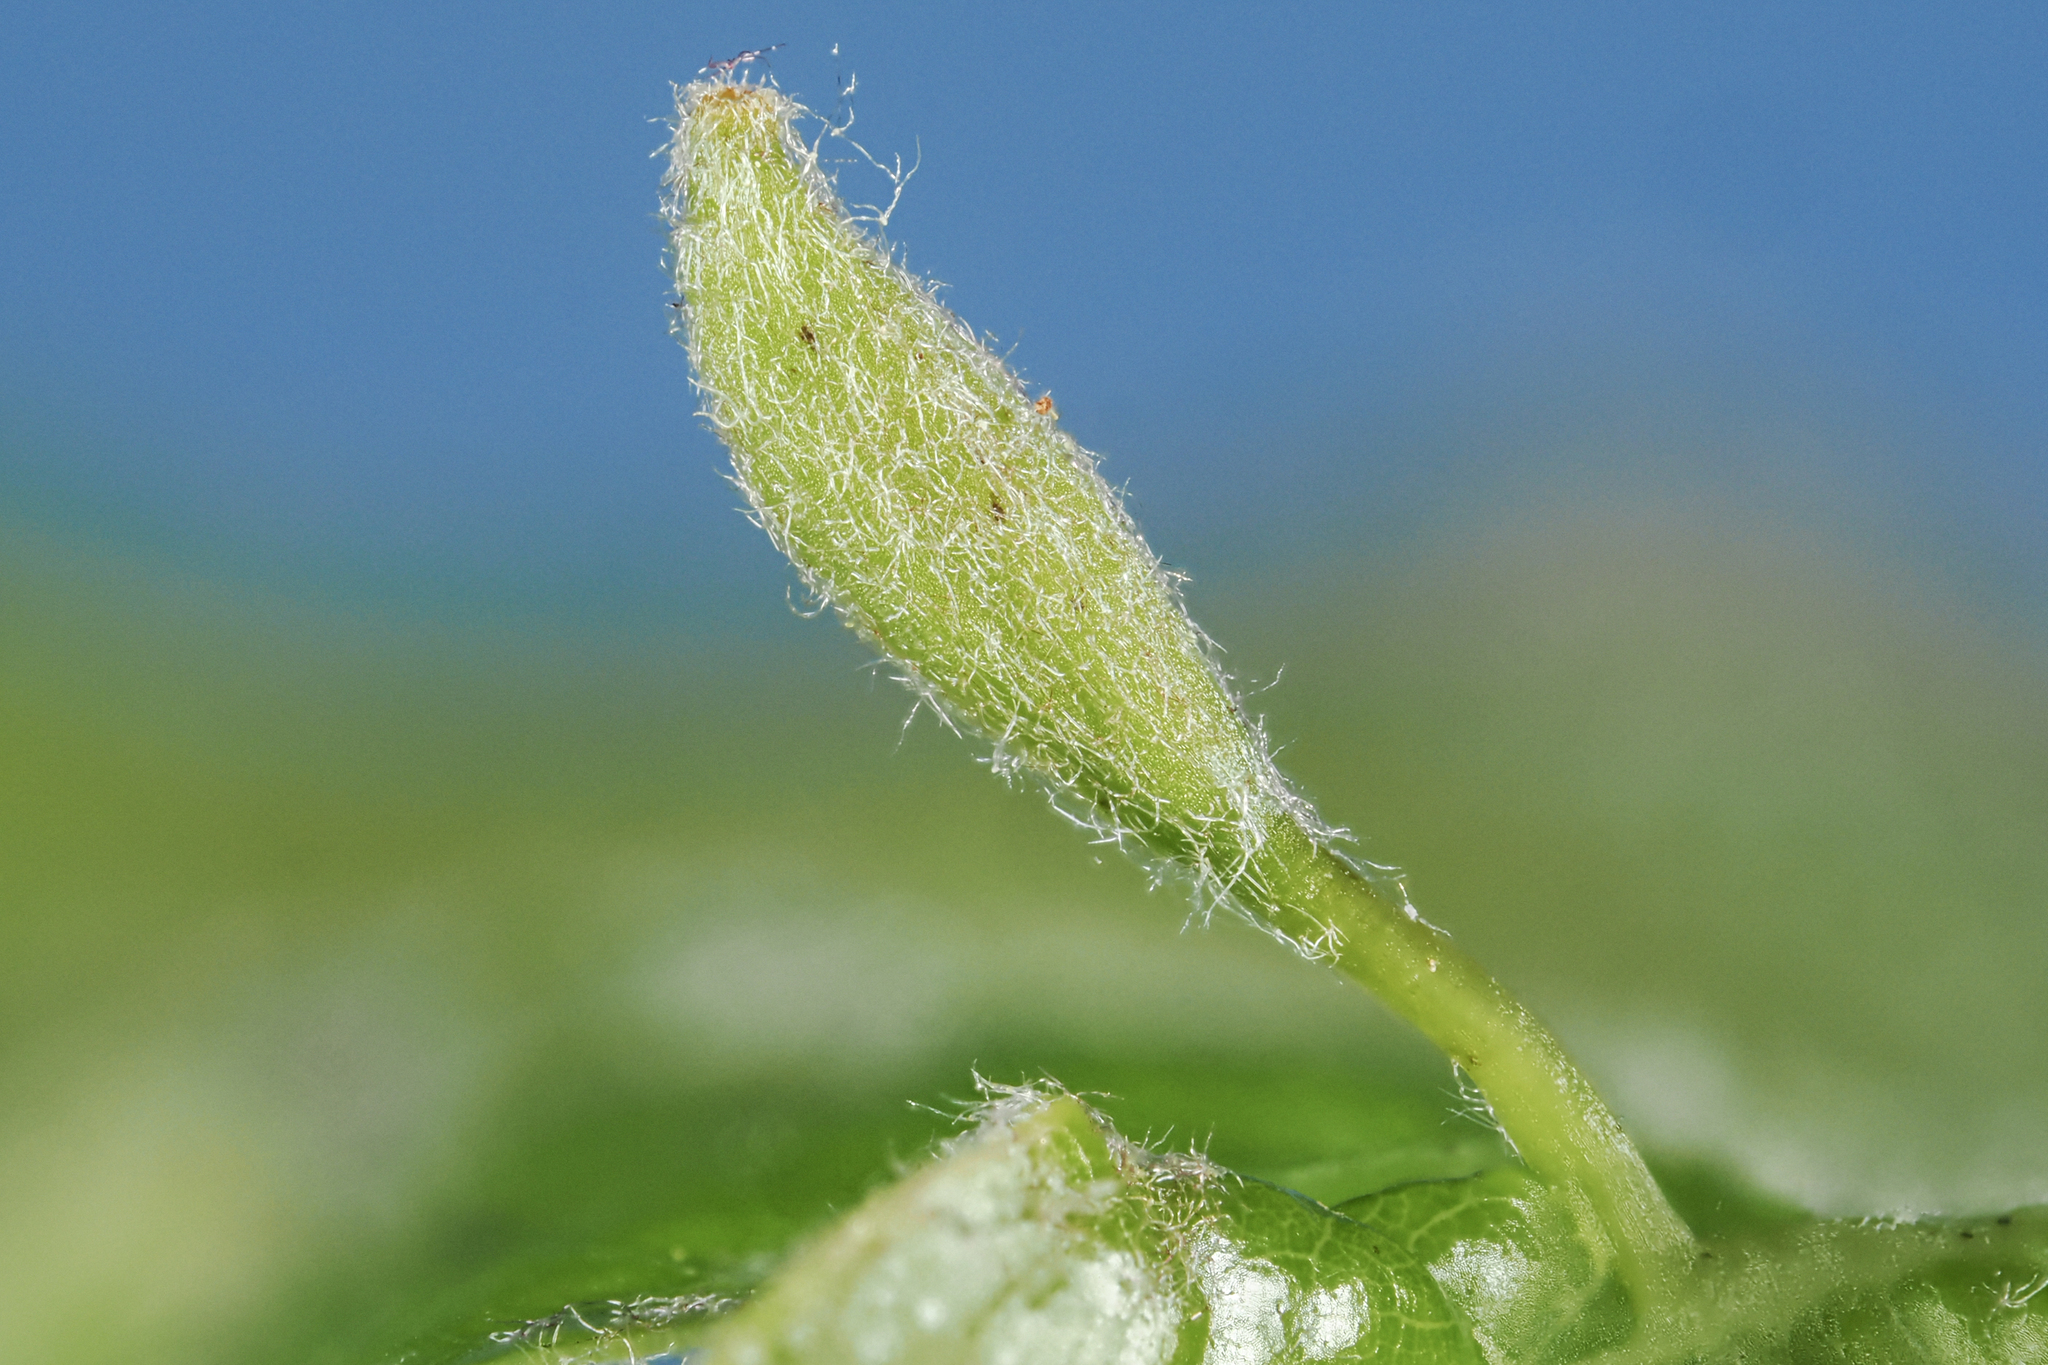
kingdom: Animalia
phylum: Arthropoda
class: Insecta
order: Hymenoptera
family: Cynipidae
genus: Andricus
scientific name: Andricus
